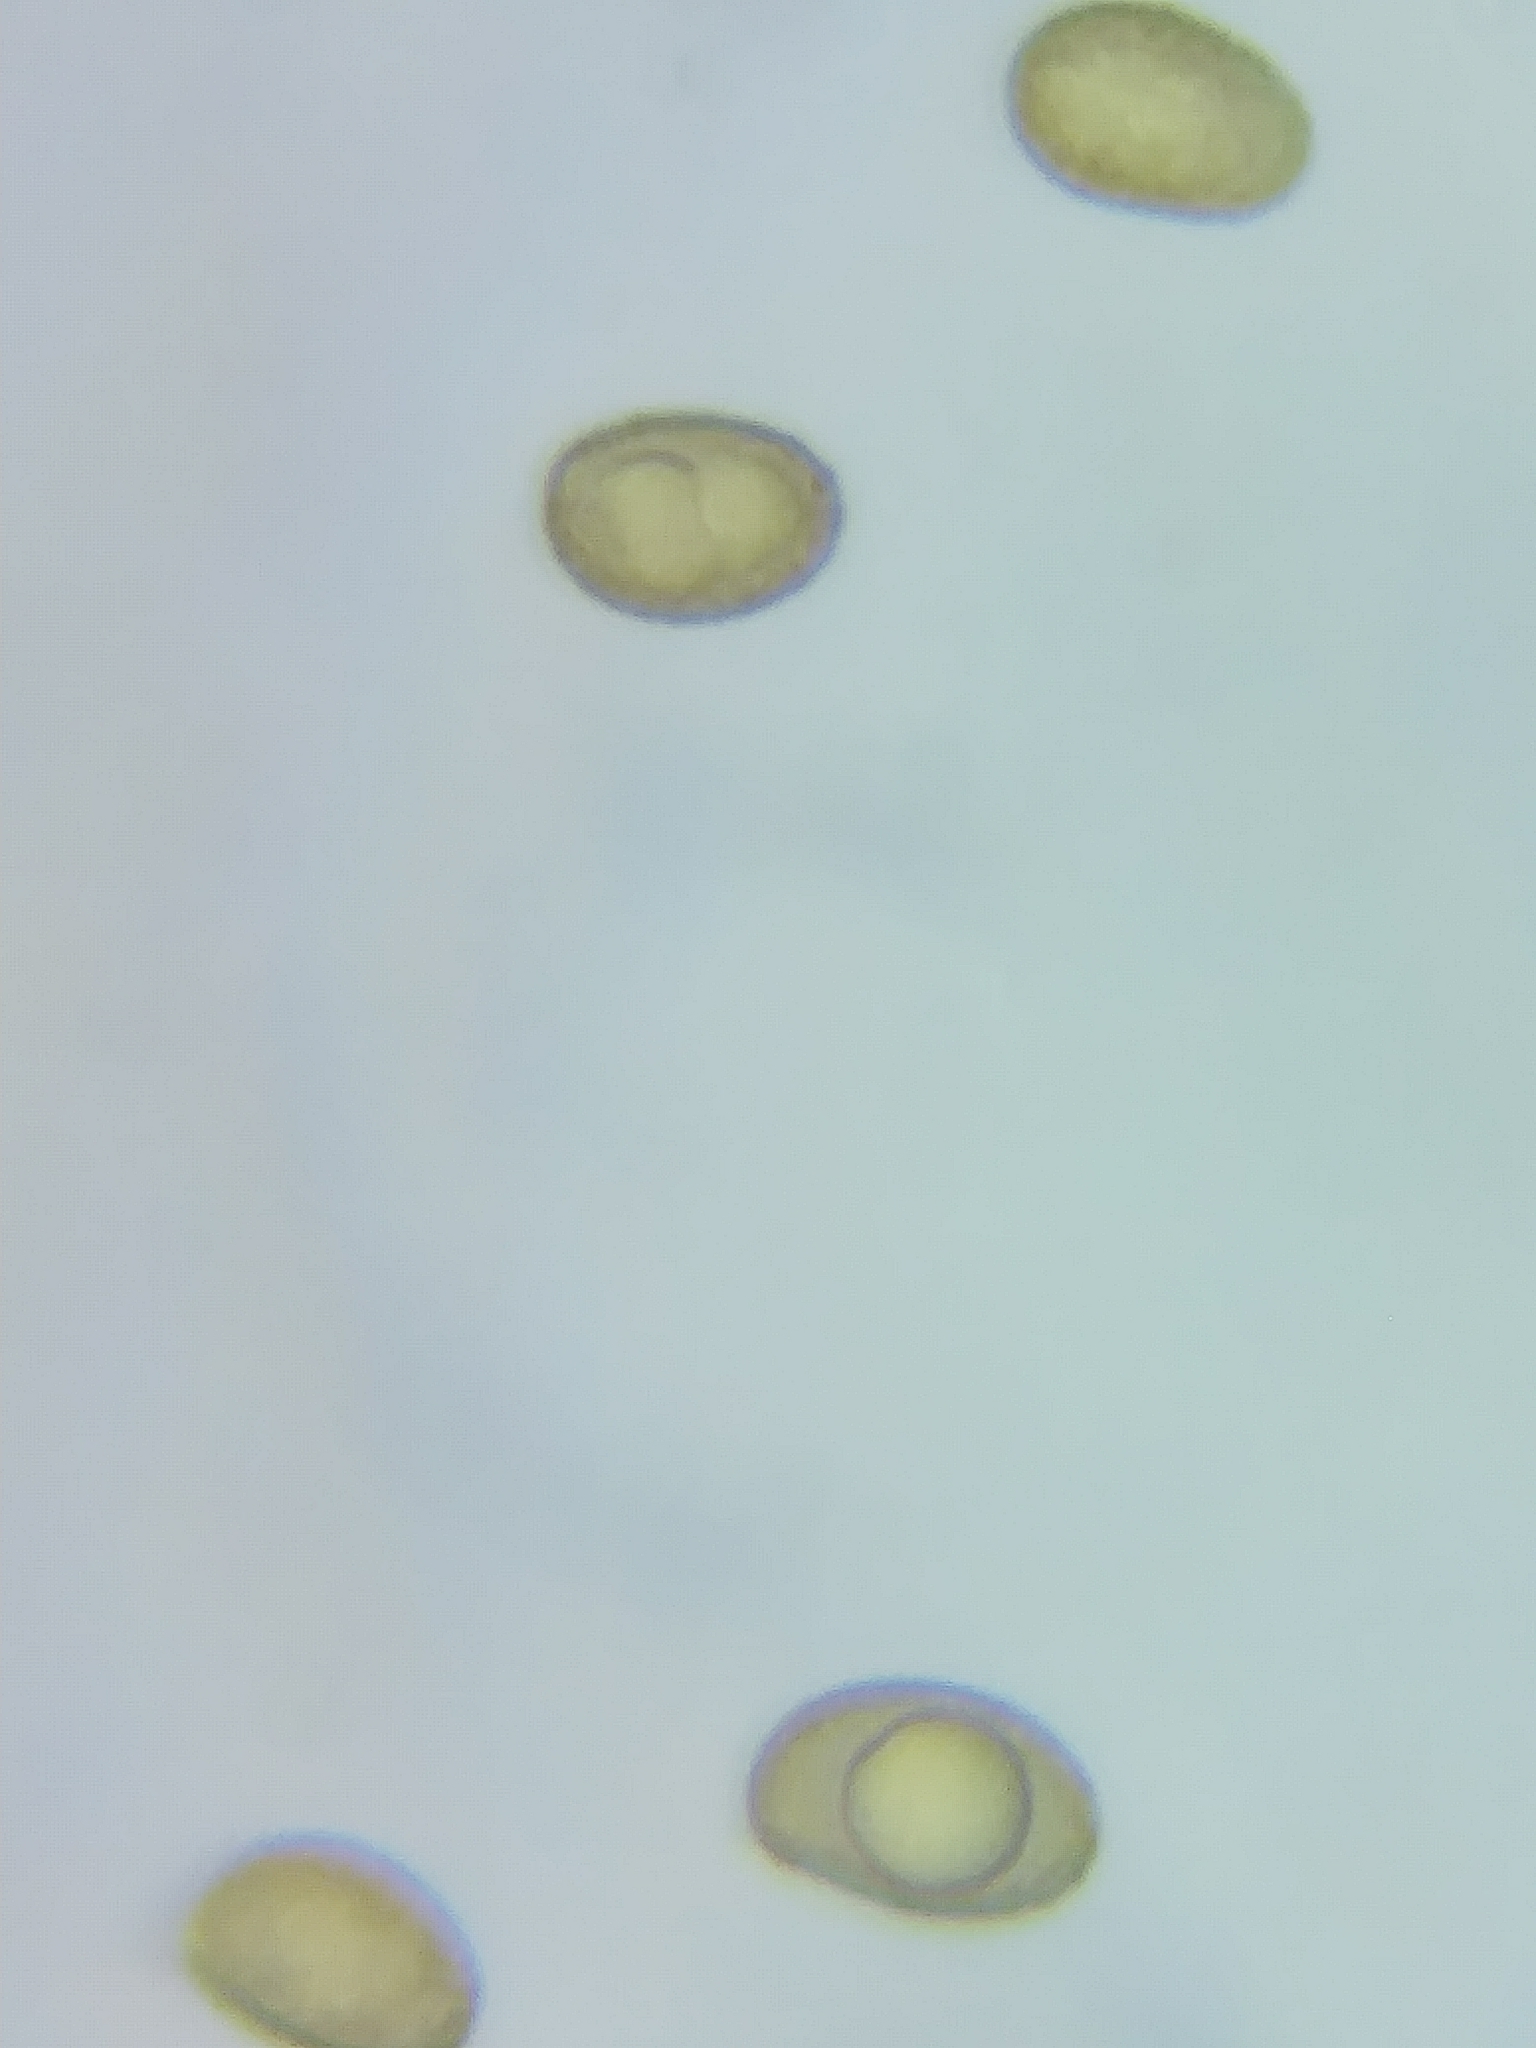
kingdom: Fungi
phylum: Basidiomycota
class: Agaricomycetes
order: Agaricales
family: Cortinariaceae
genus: Cortinarius
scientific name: Cortinarius iodes
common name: Viscid violet cort
